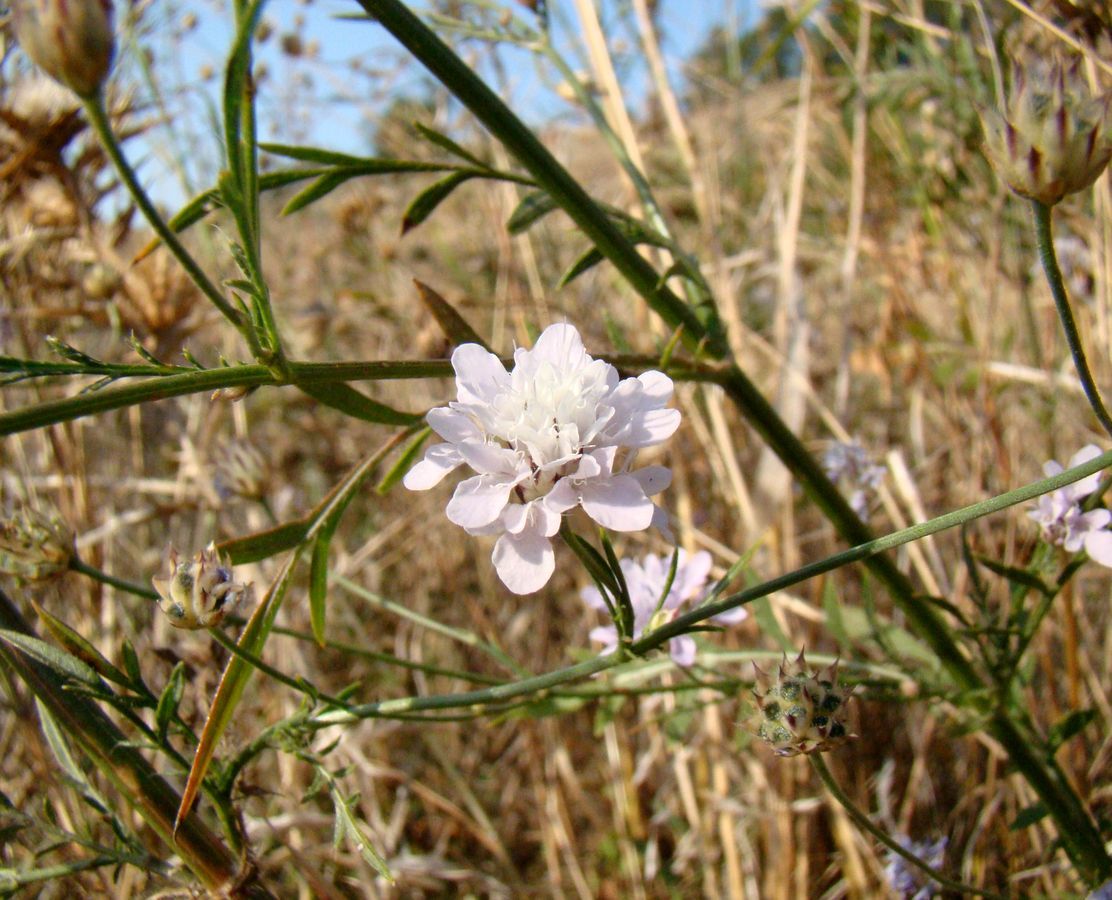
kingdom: Plantae
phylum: Tracheophyta
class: Magnoliopsida
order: Dipsacales
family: Caprifoliaceae
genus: Cephalaria
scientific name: Cephalaria transsylvanica
